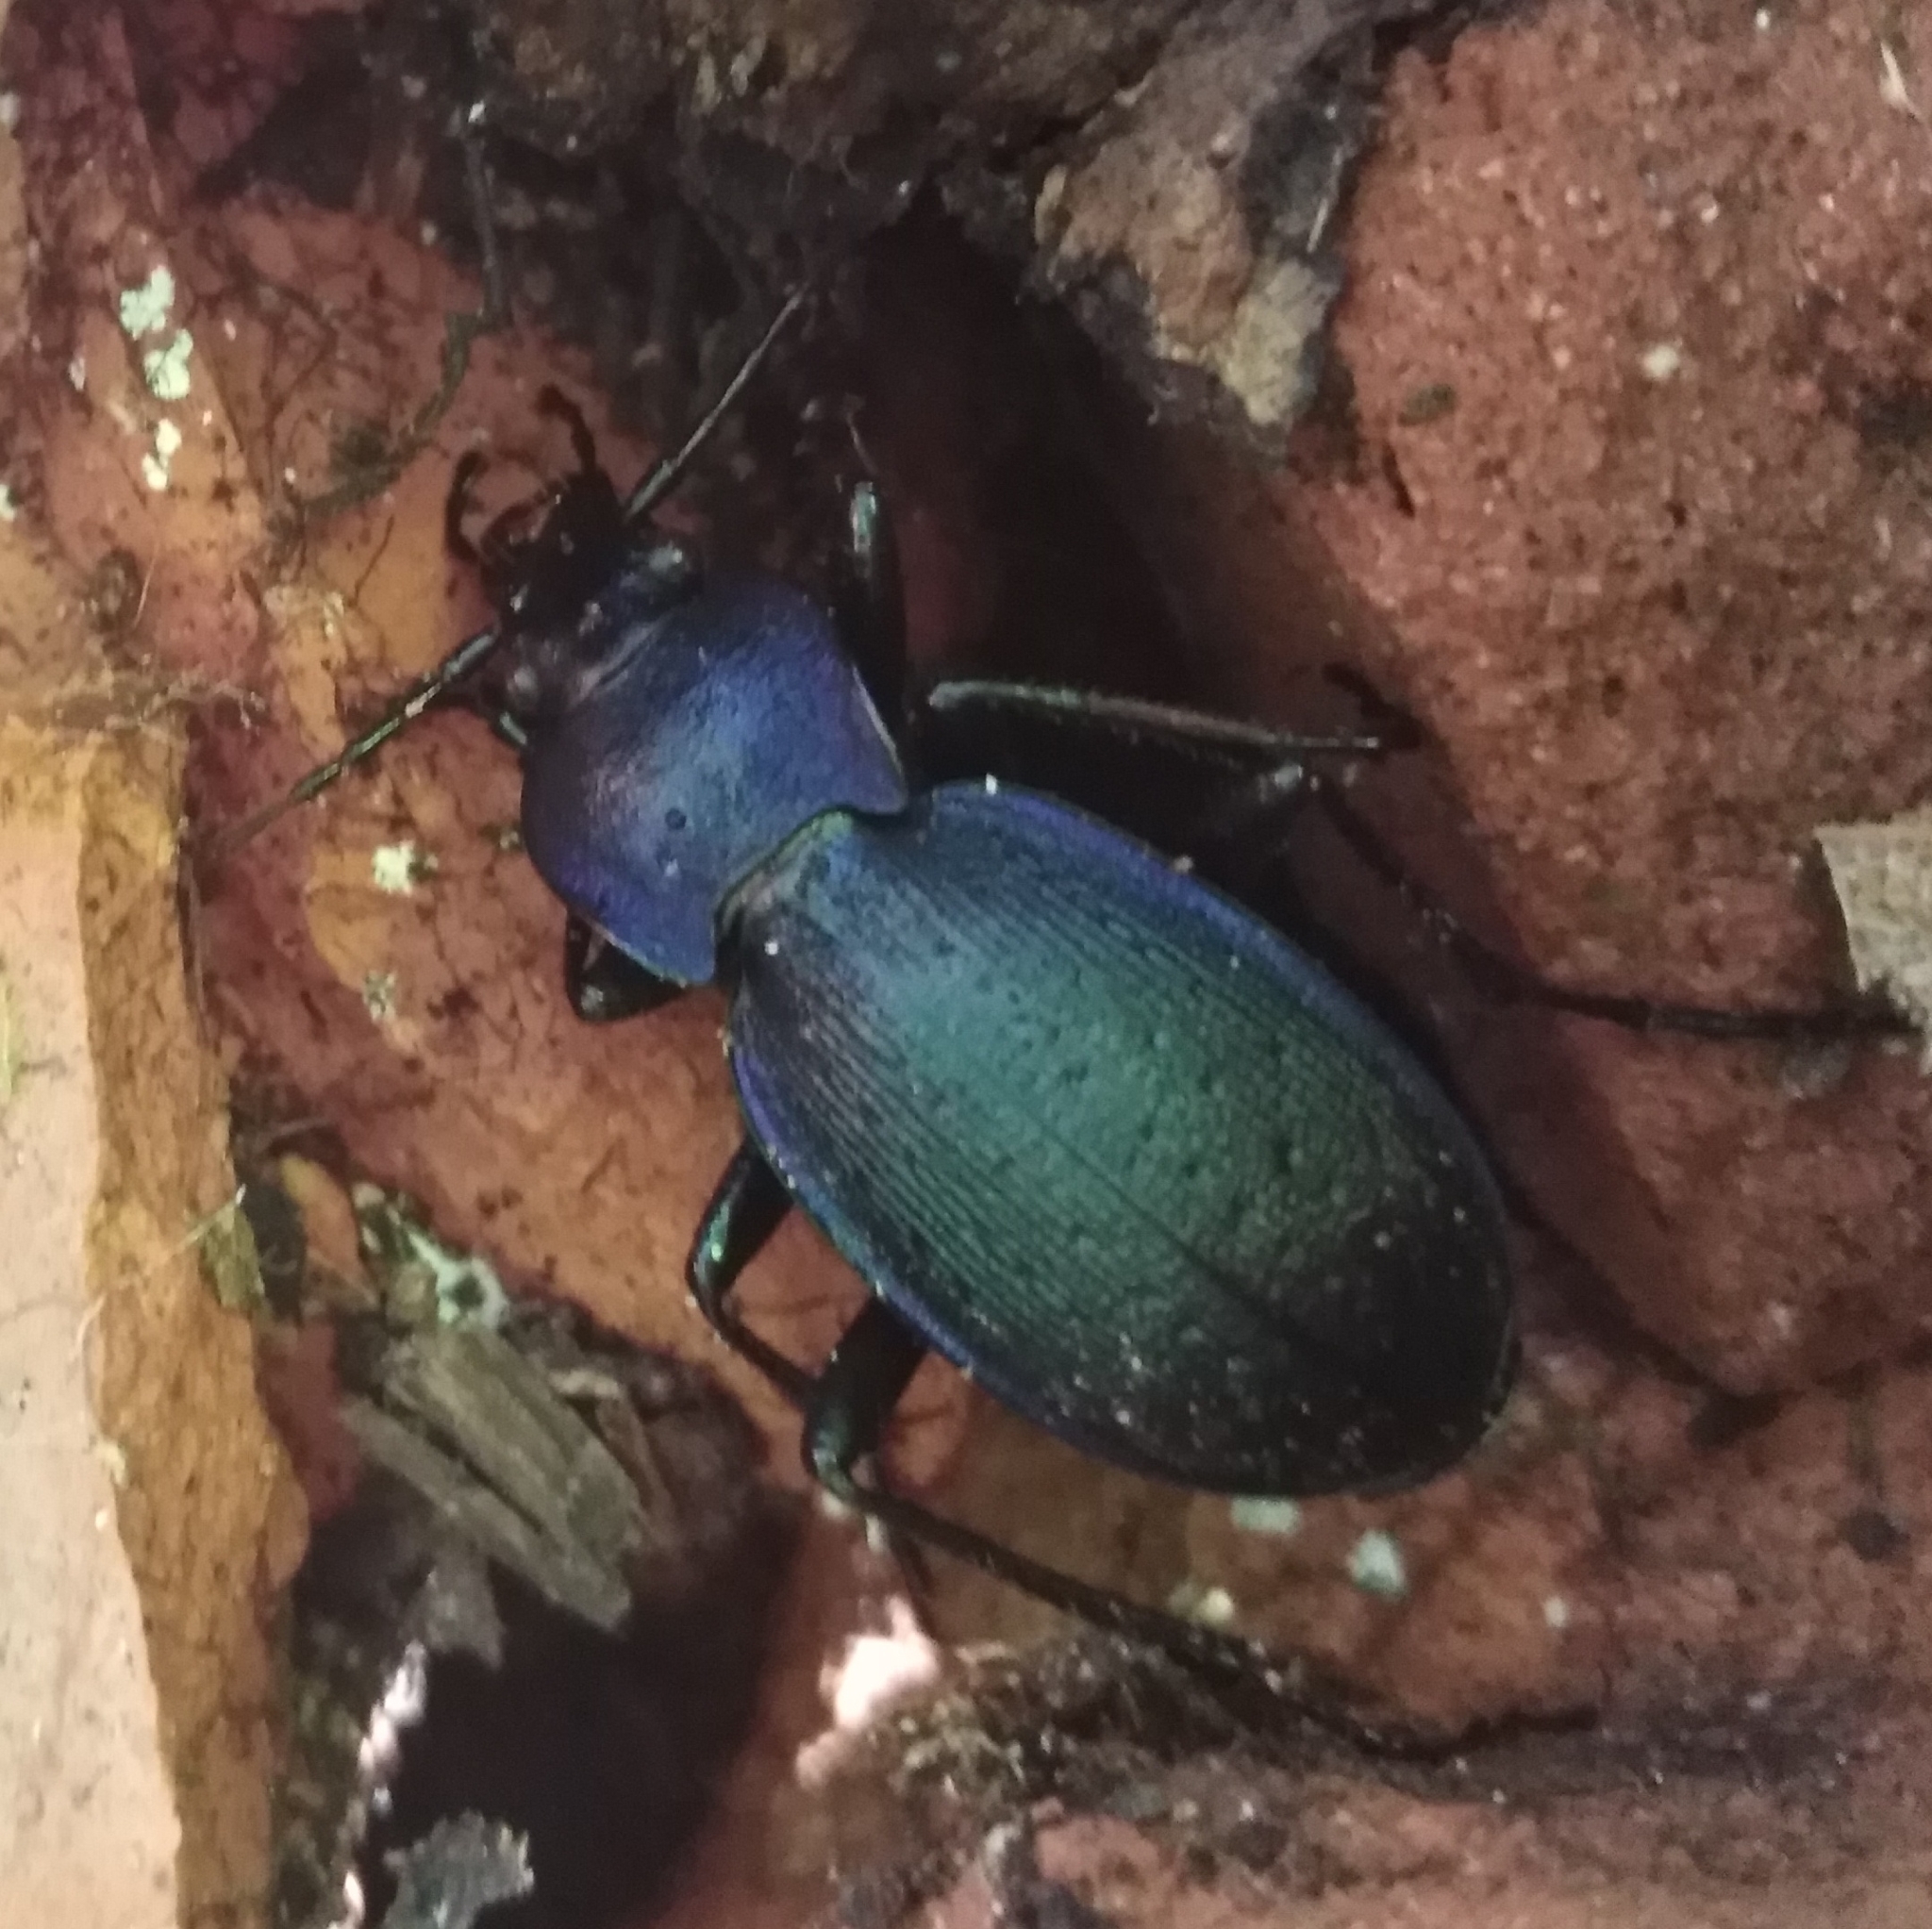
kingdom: Animalia
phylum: Arthropoda
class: Insecta
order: Coleoptera
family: Carabidae
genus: Carabus
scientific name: Carabus problematicus
